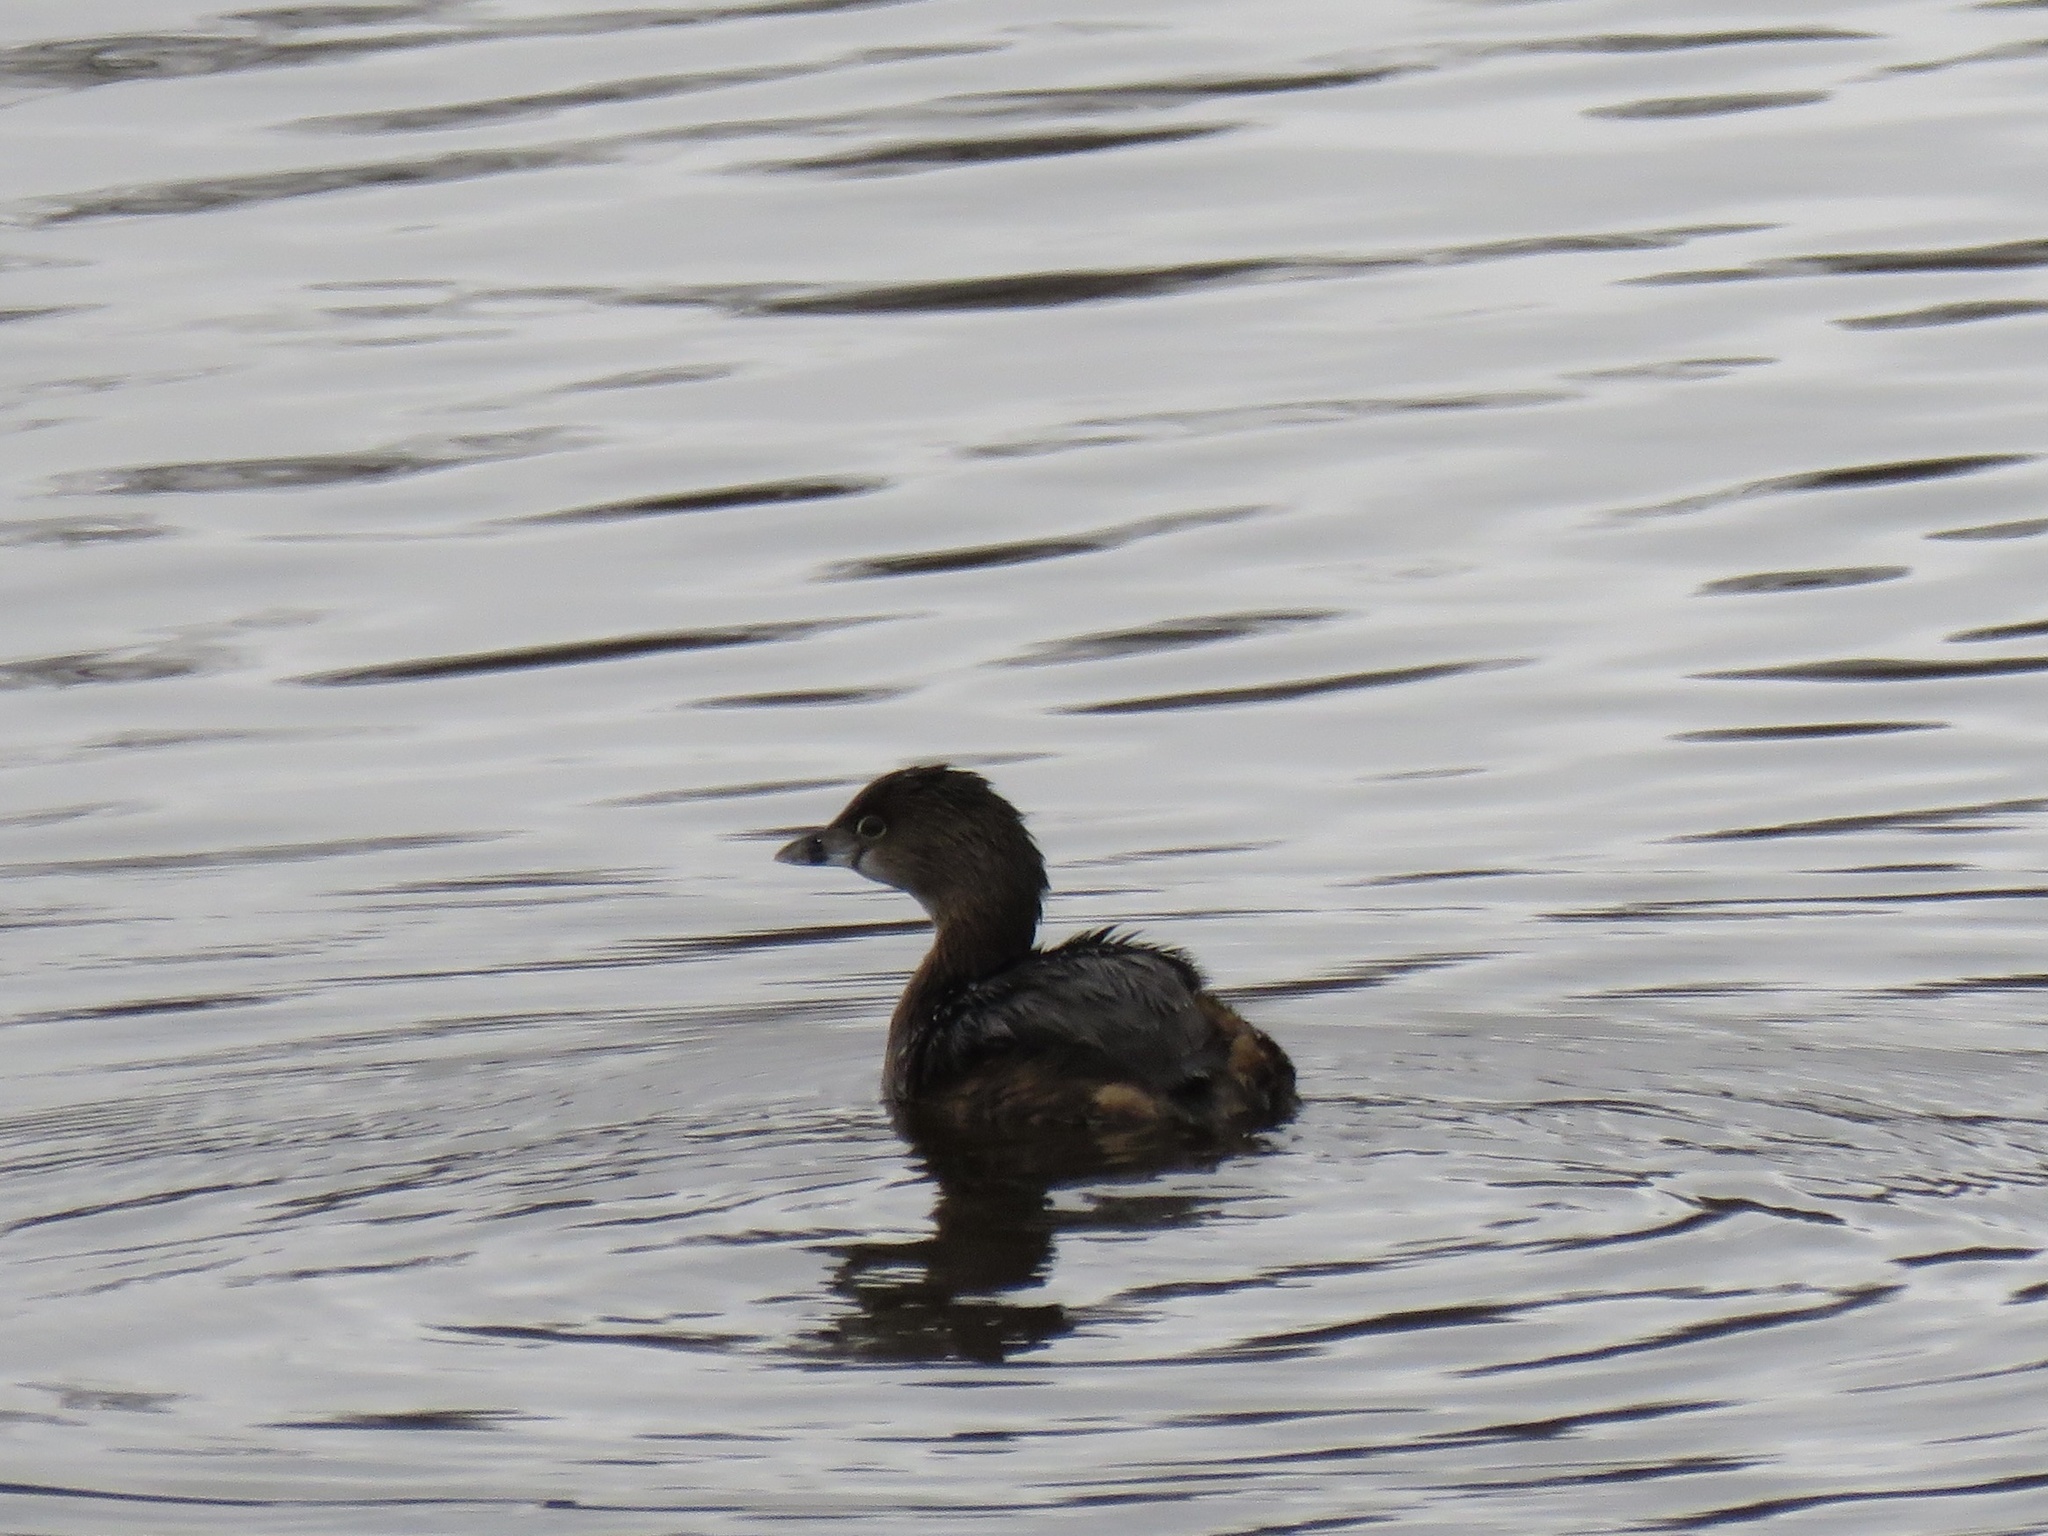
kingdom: Animalia
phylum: Chordata
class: Aves
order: Podicipediformes
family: Podicipedidae
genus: Podilymbus
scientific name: Podilymbus podiceps
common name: Pied-billed grebe
